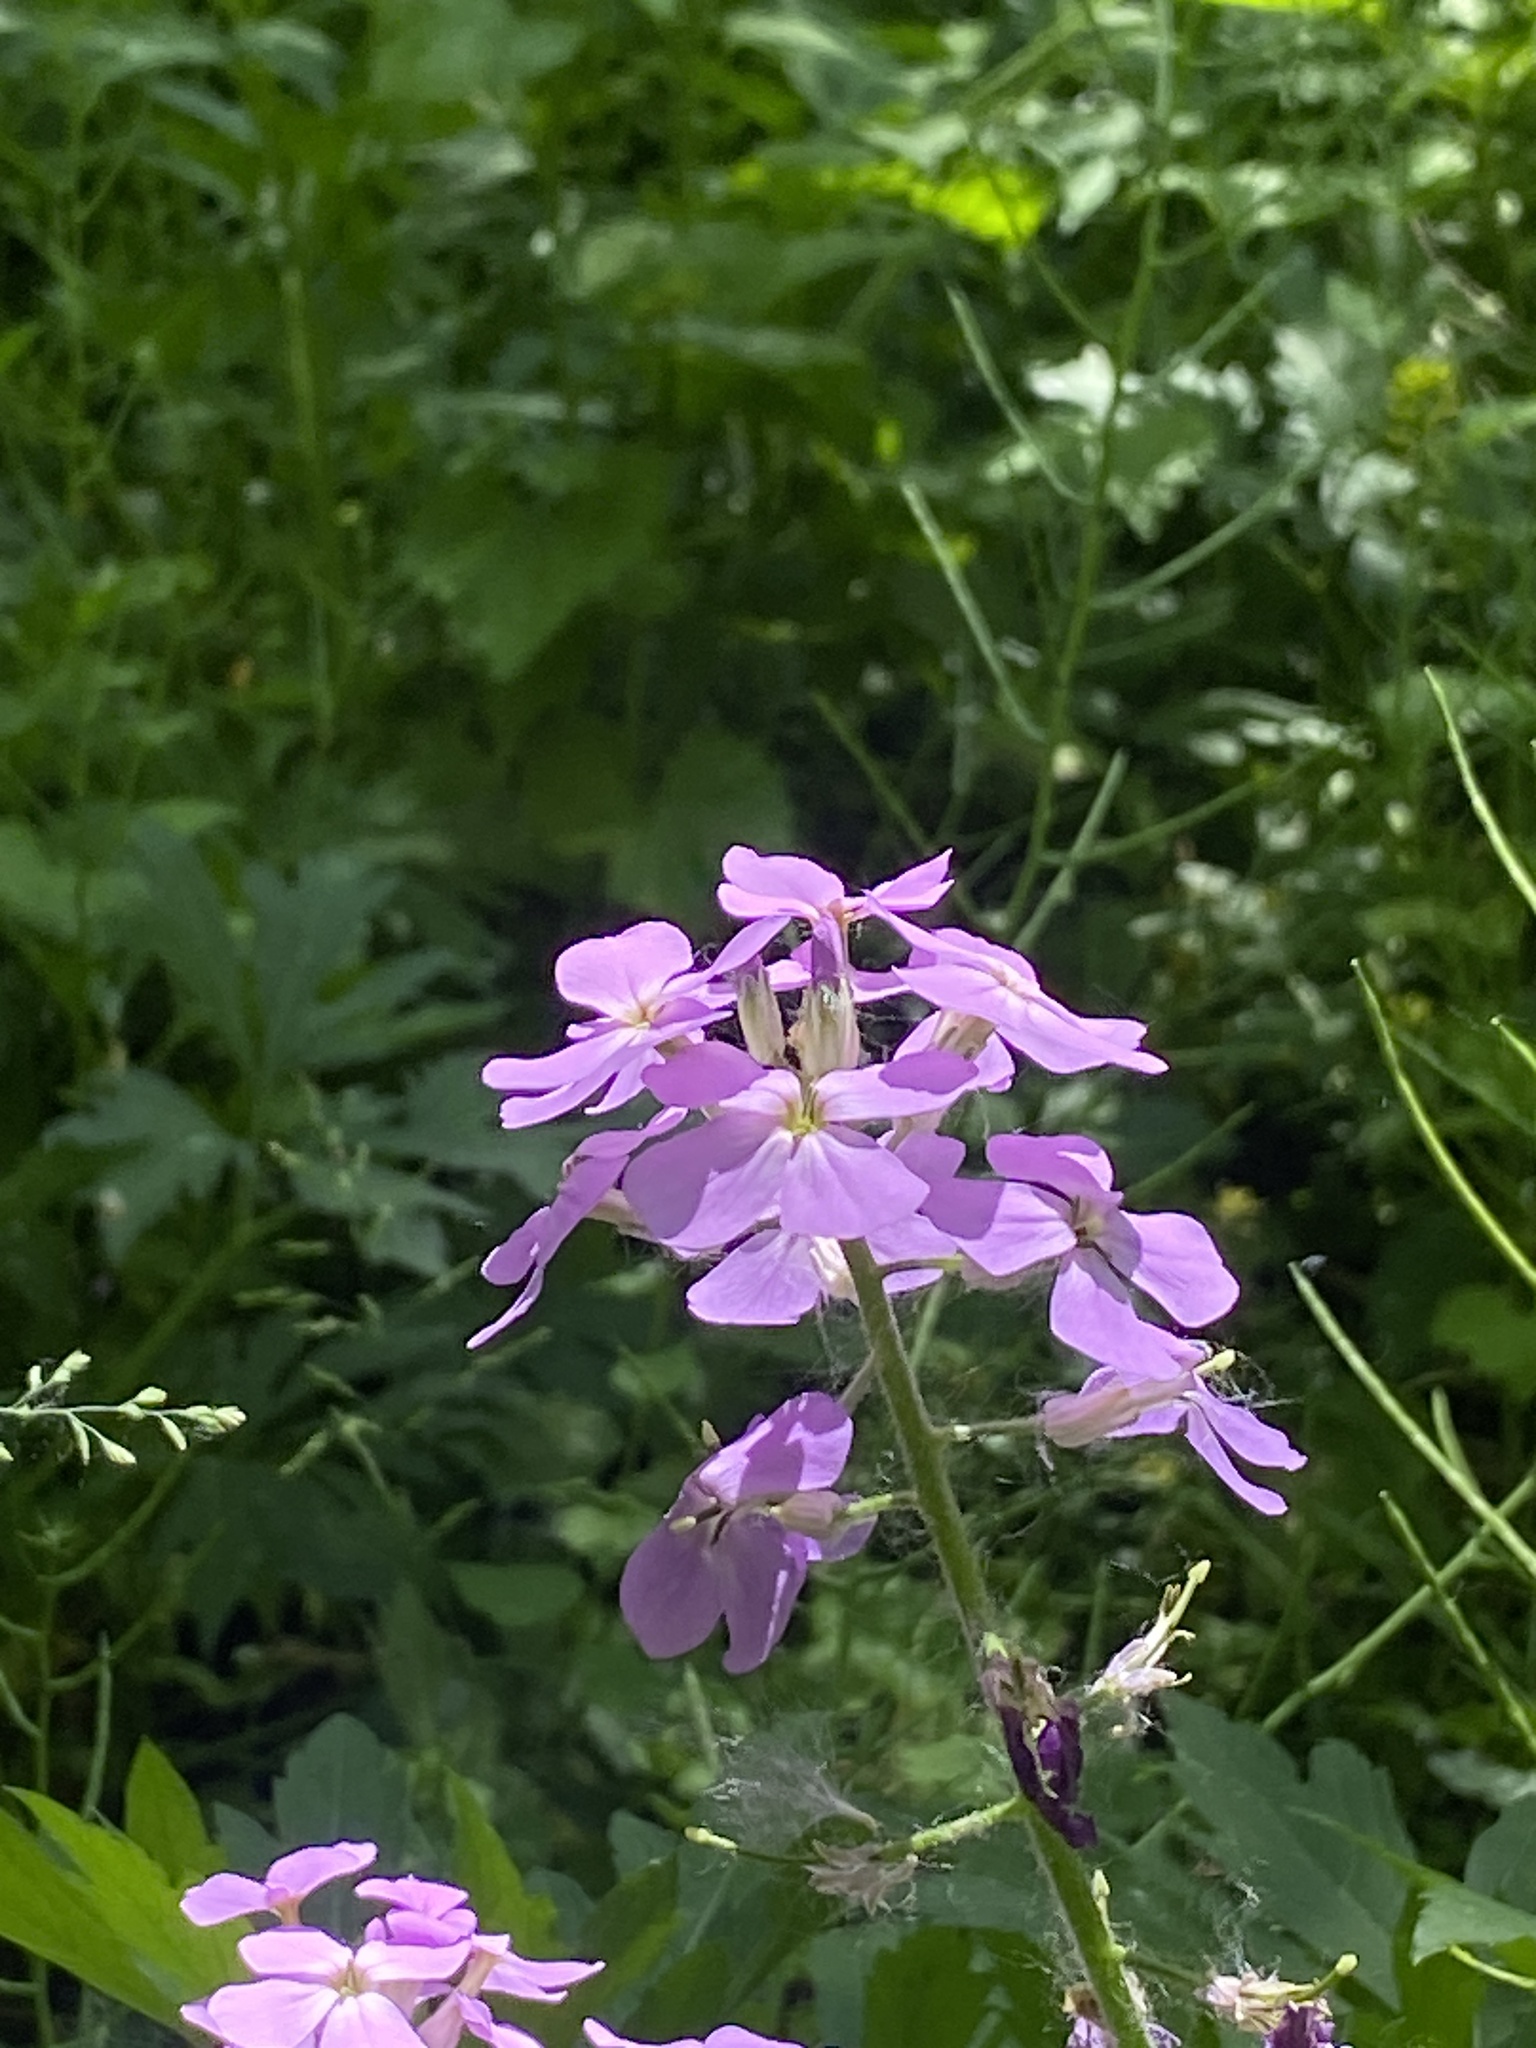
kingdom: Plantae
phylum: Tracheophyta
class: Magnoliopsida
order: Brassicales
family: Brassicaceae
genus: Hesperis
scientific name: Hesperis matronalis
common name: Dame's-violet
